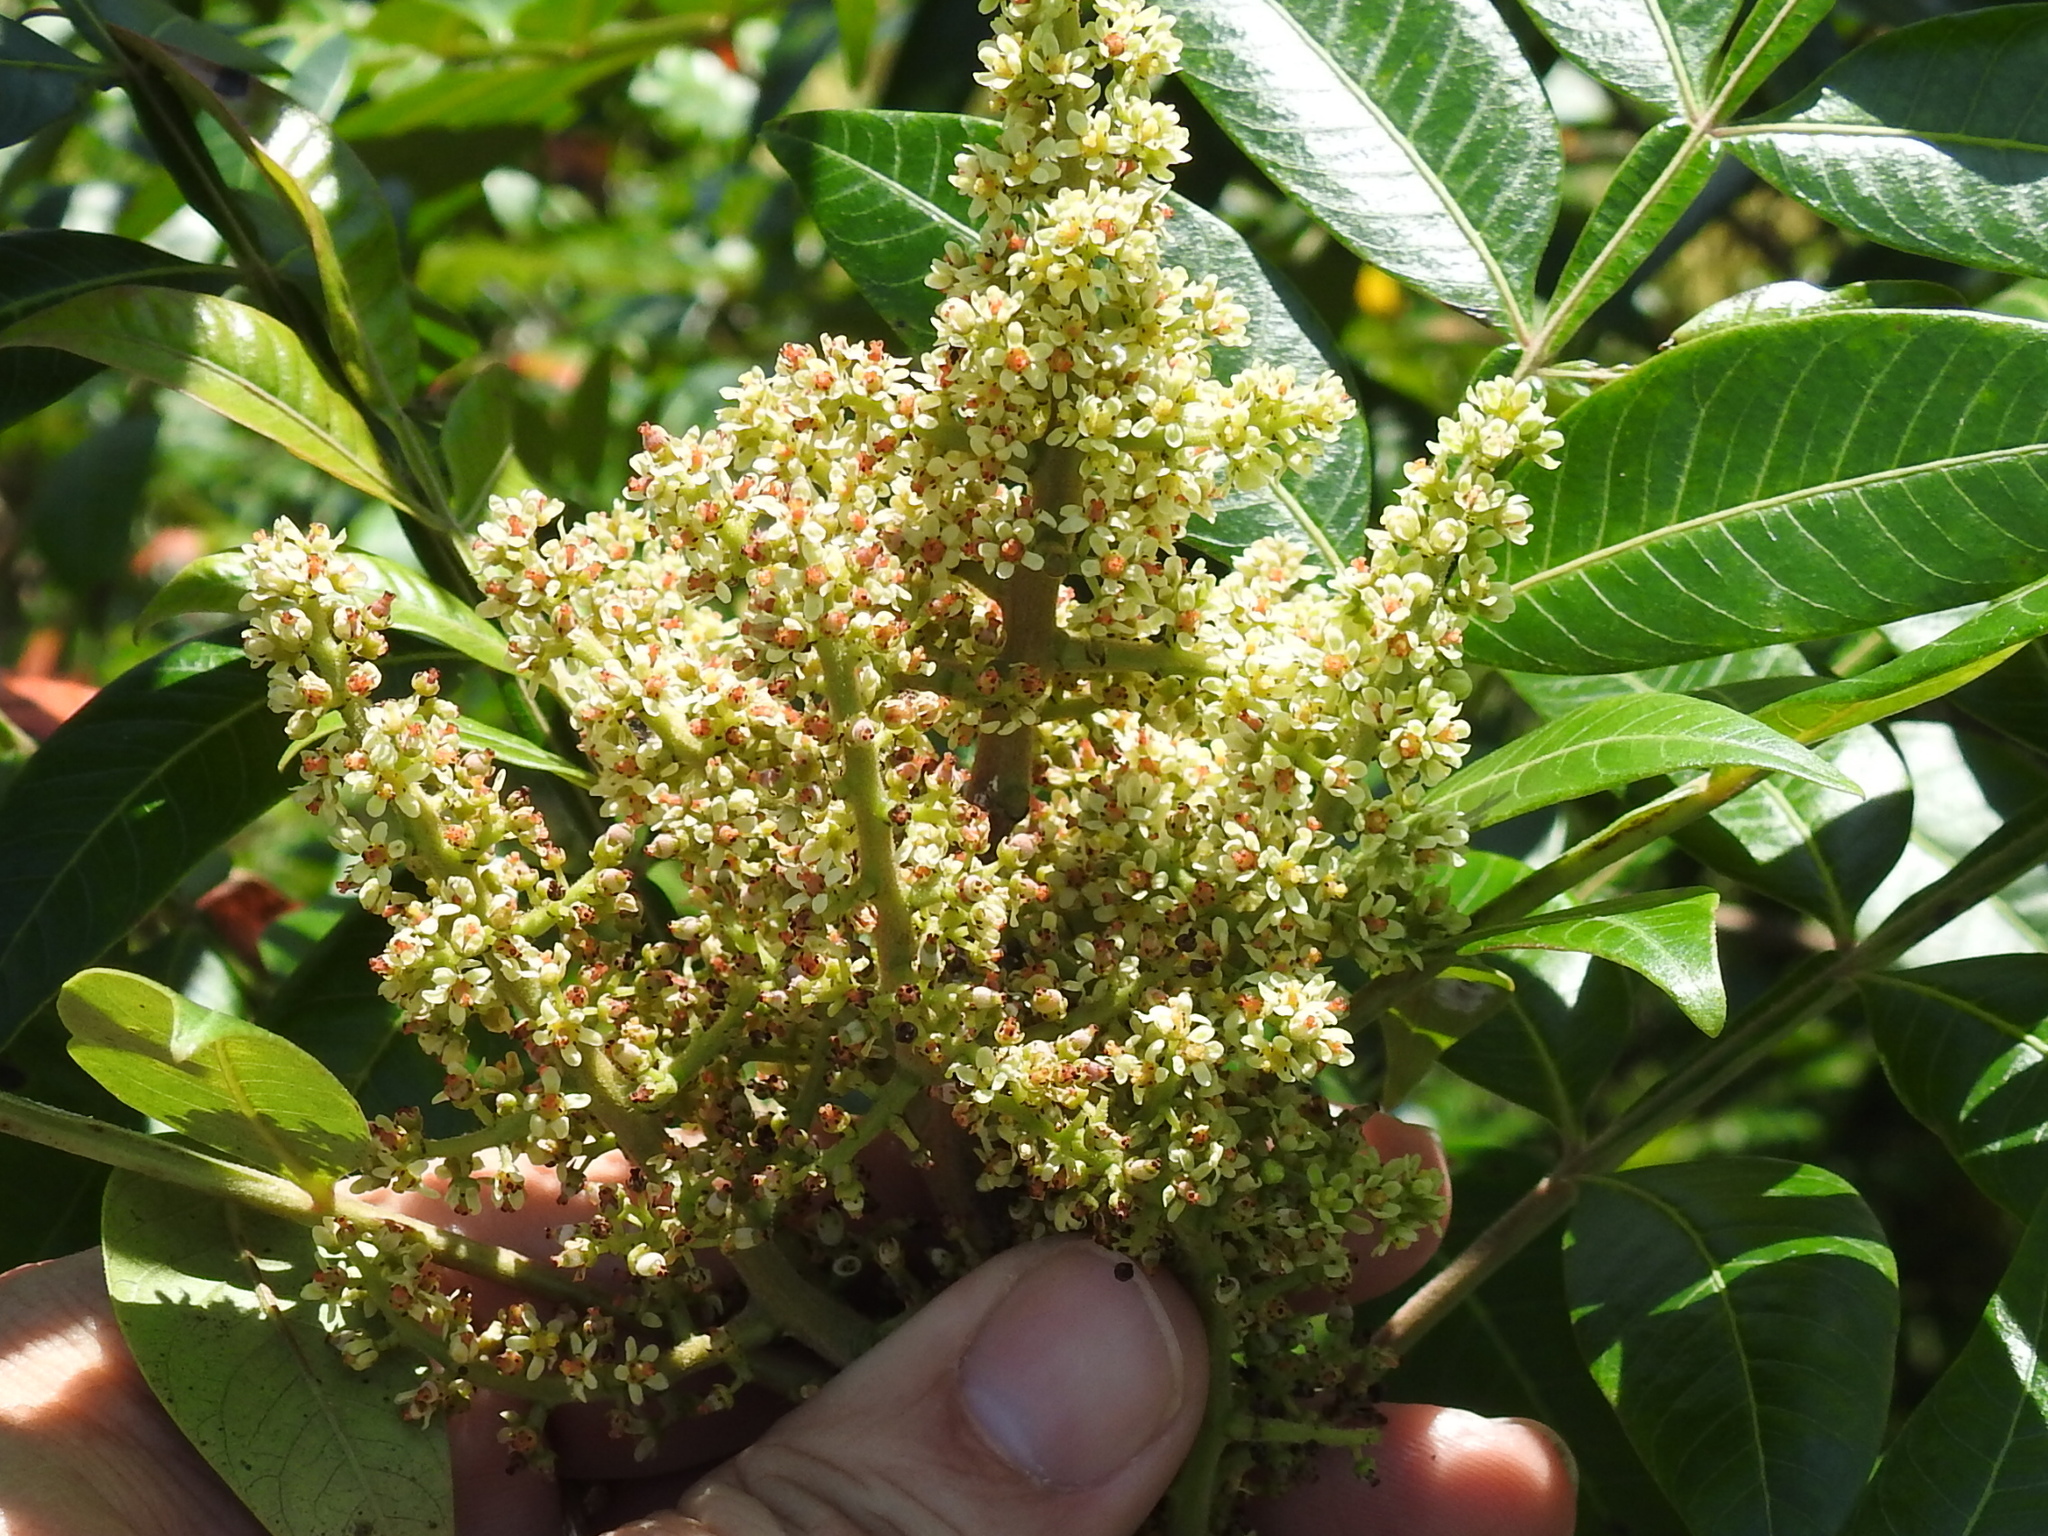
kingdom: Plantae
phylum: Tracheophyta
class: Magnoliopsida
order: Sapindales
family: Anacardiaceae
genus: Rhus
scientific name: Rhus copallina
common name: Shining sumac
